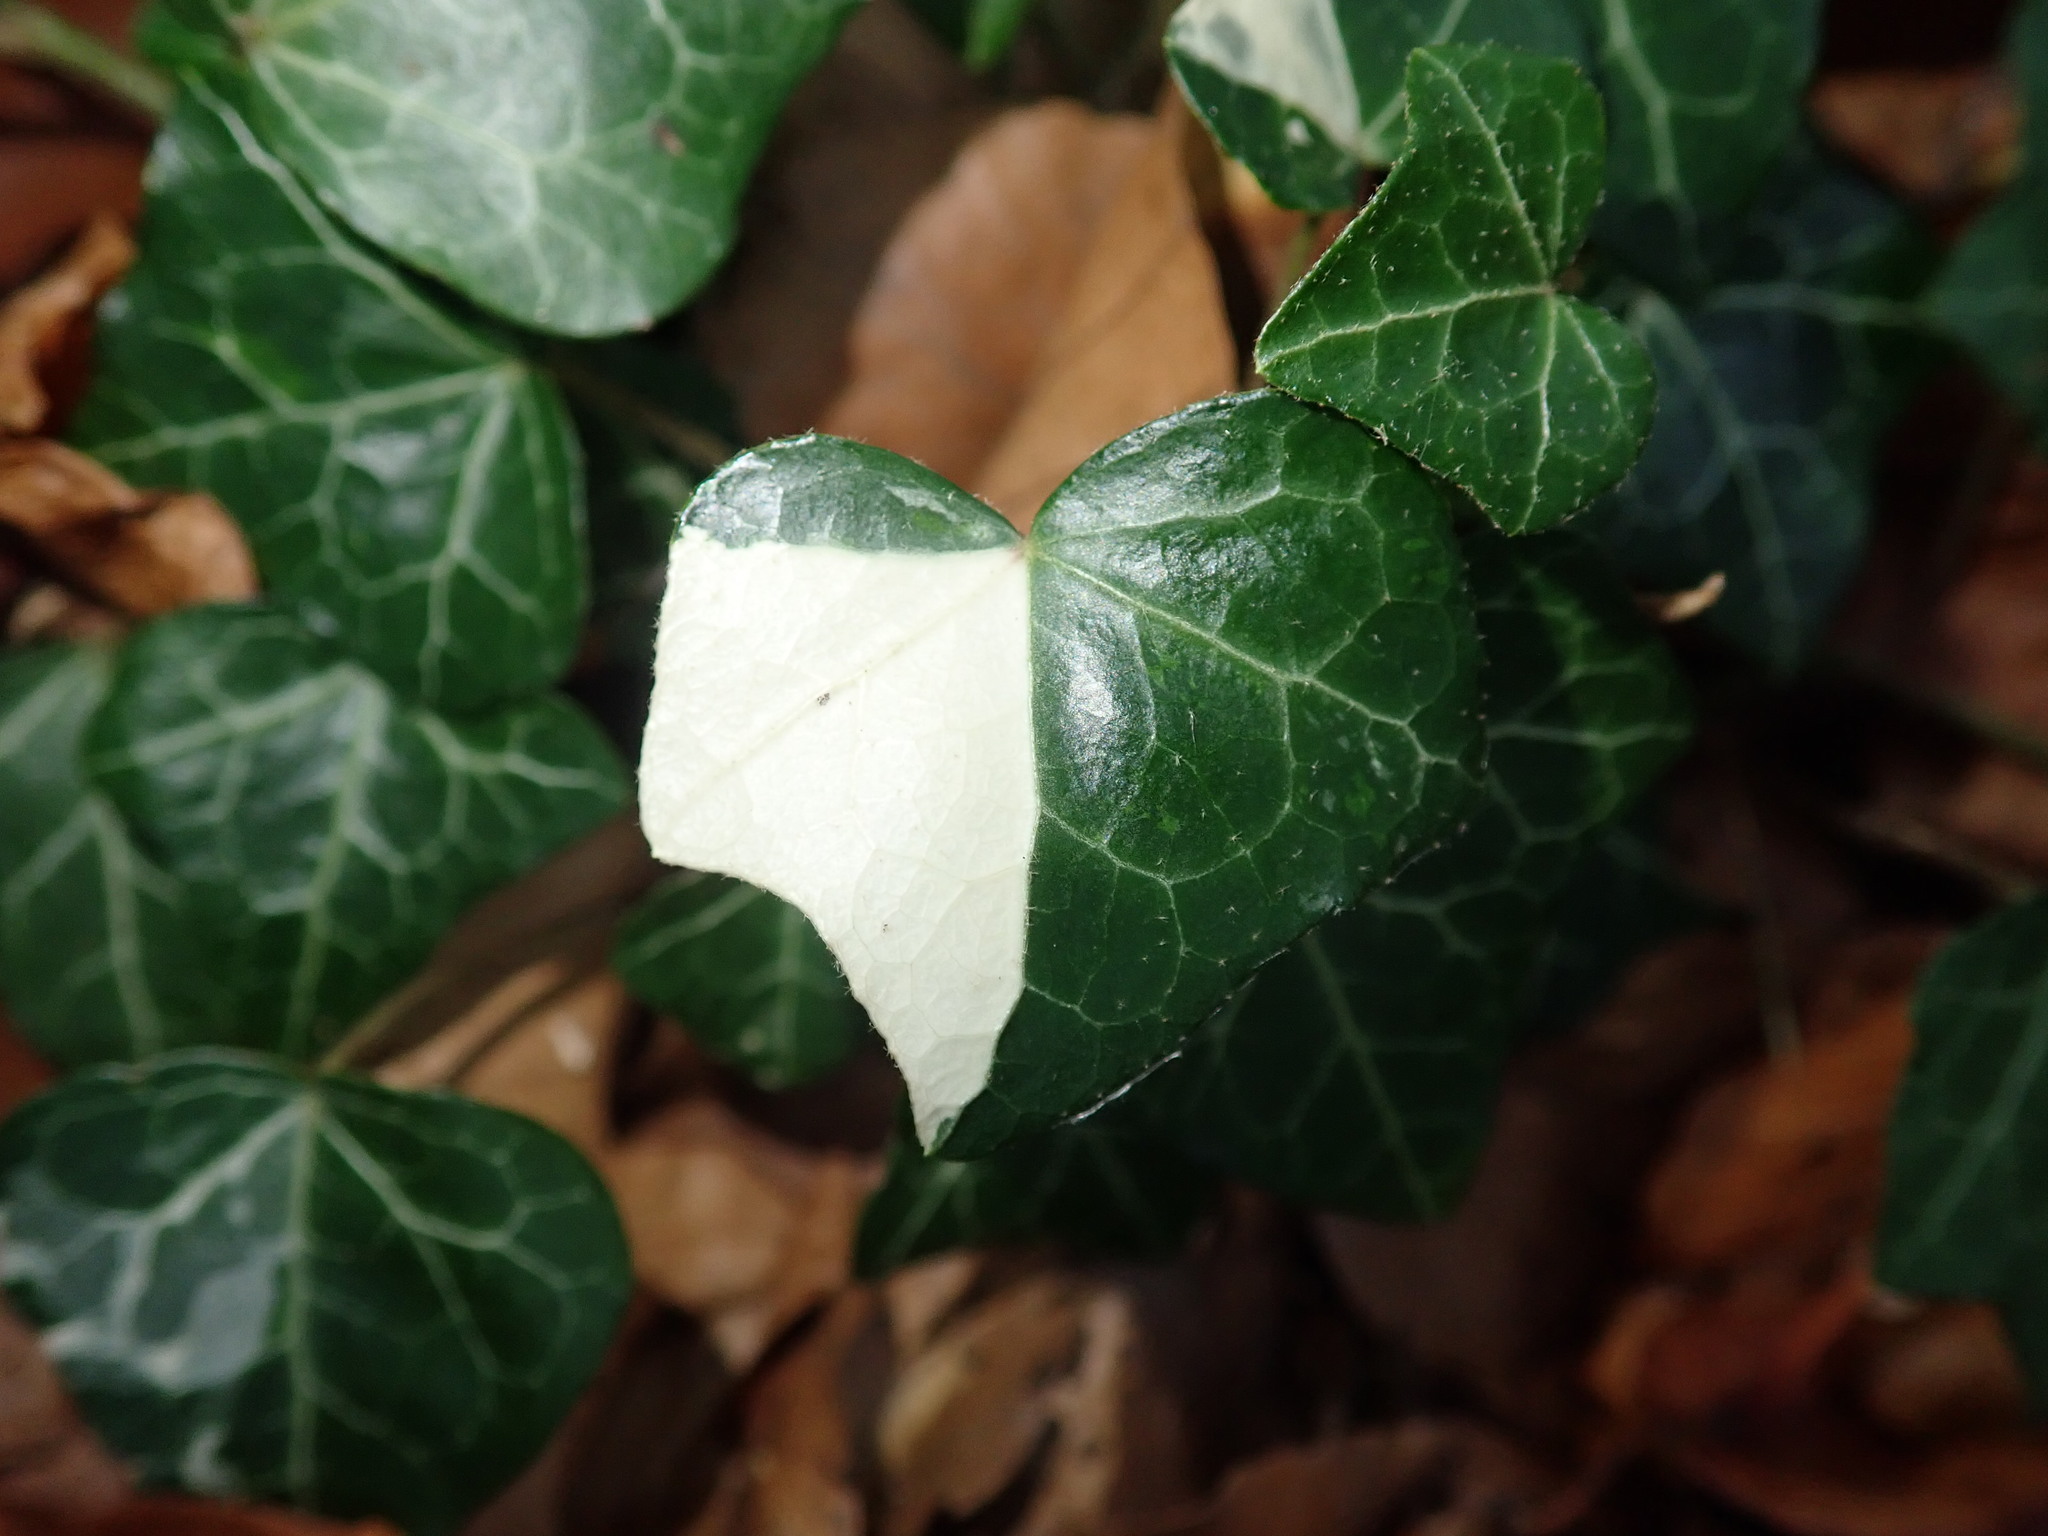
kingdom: Plantae
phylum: Tracheophyta
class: Magnoliopsida
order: Apiales
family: Araliaceae
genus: Hedera
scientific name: Hedera helix
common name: Ivy
